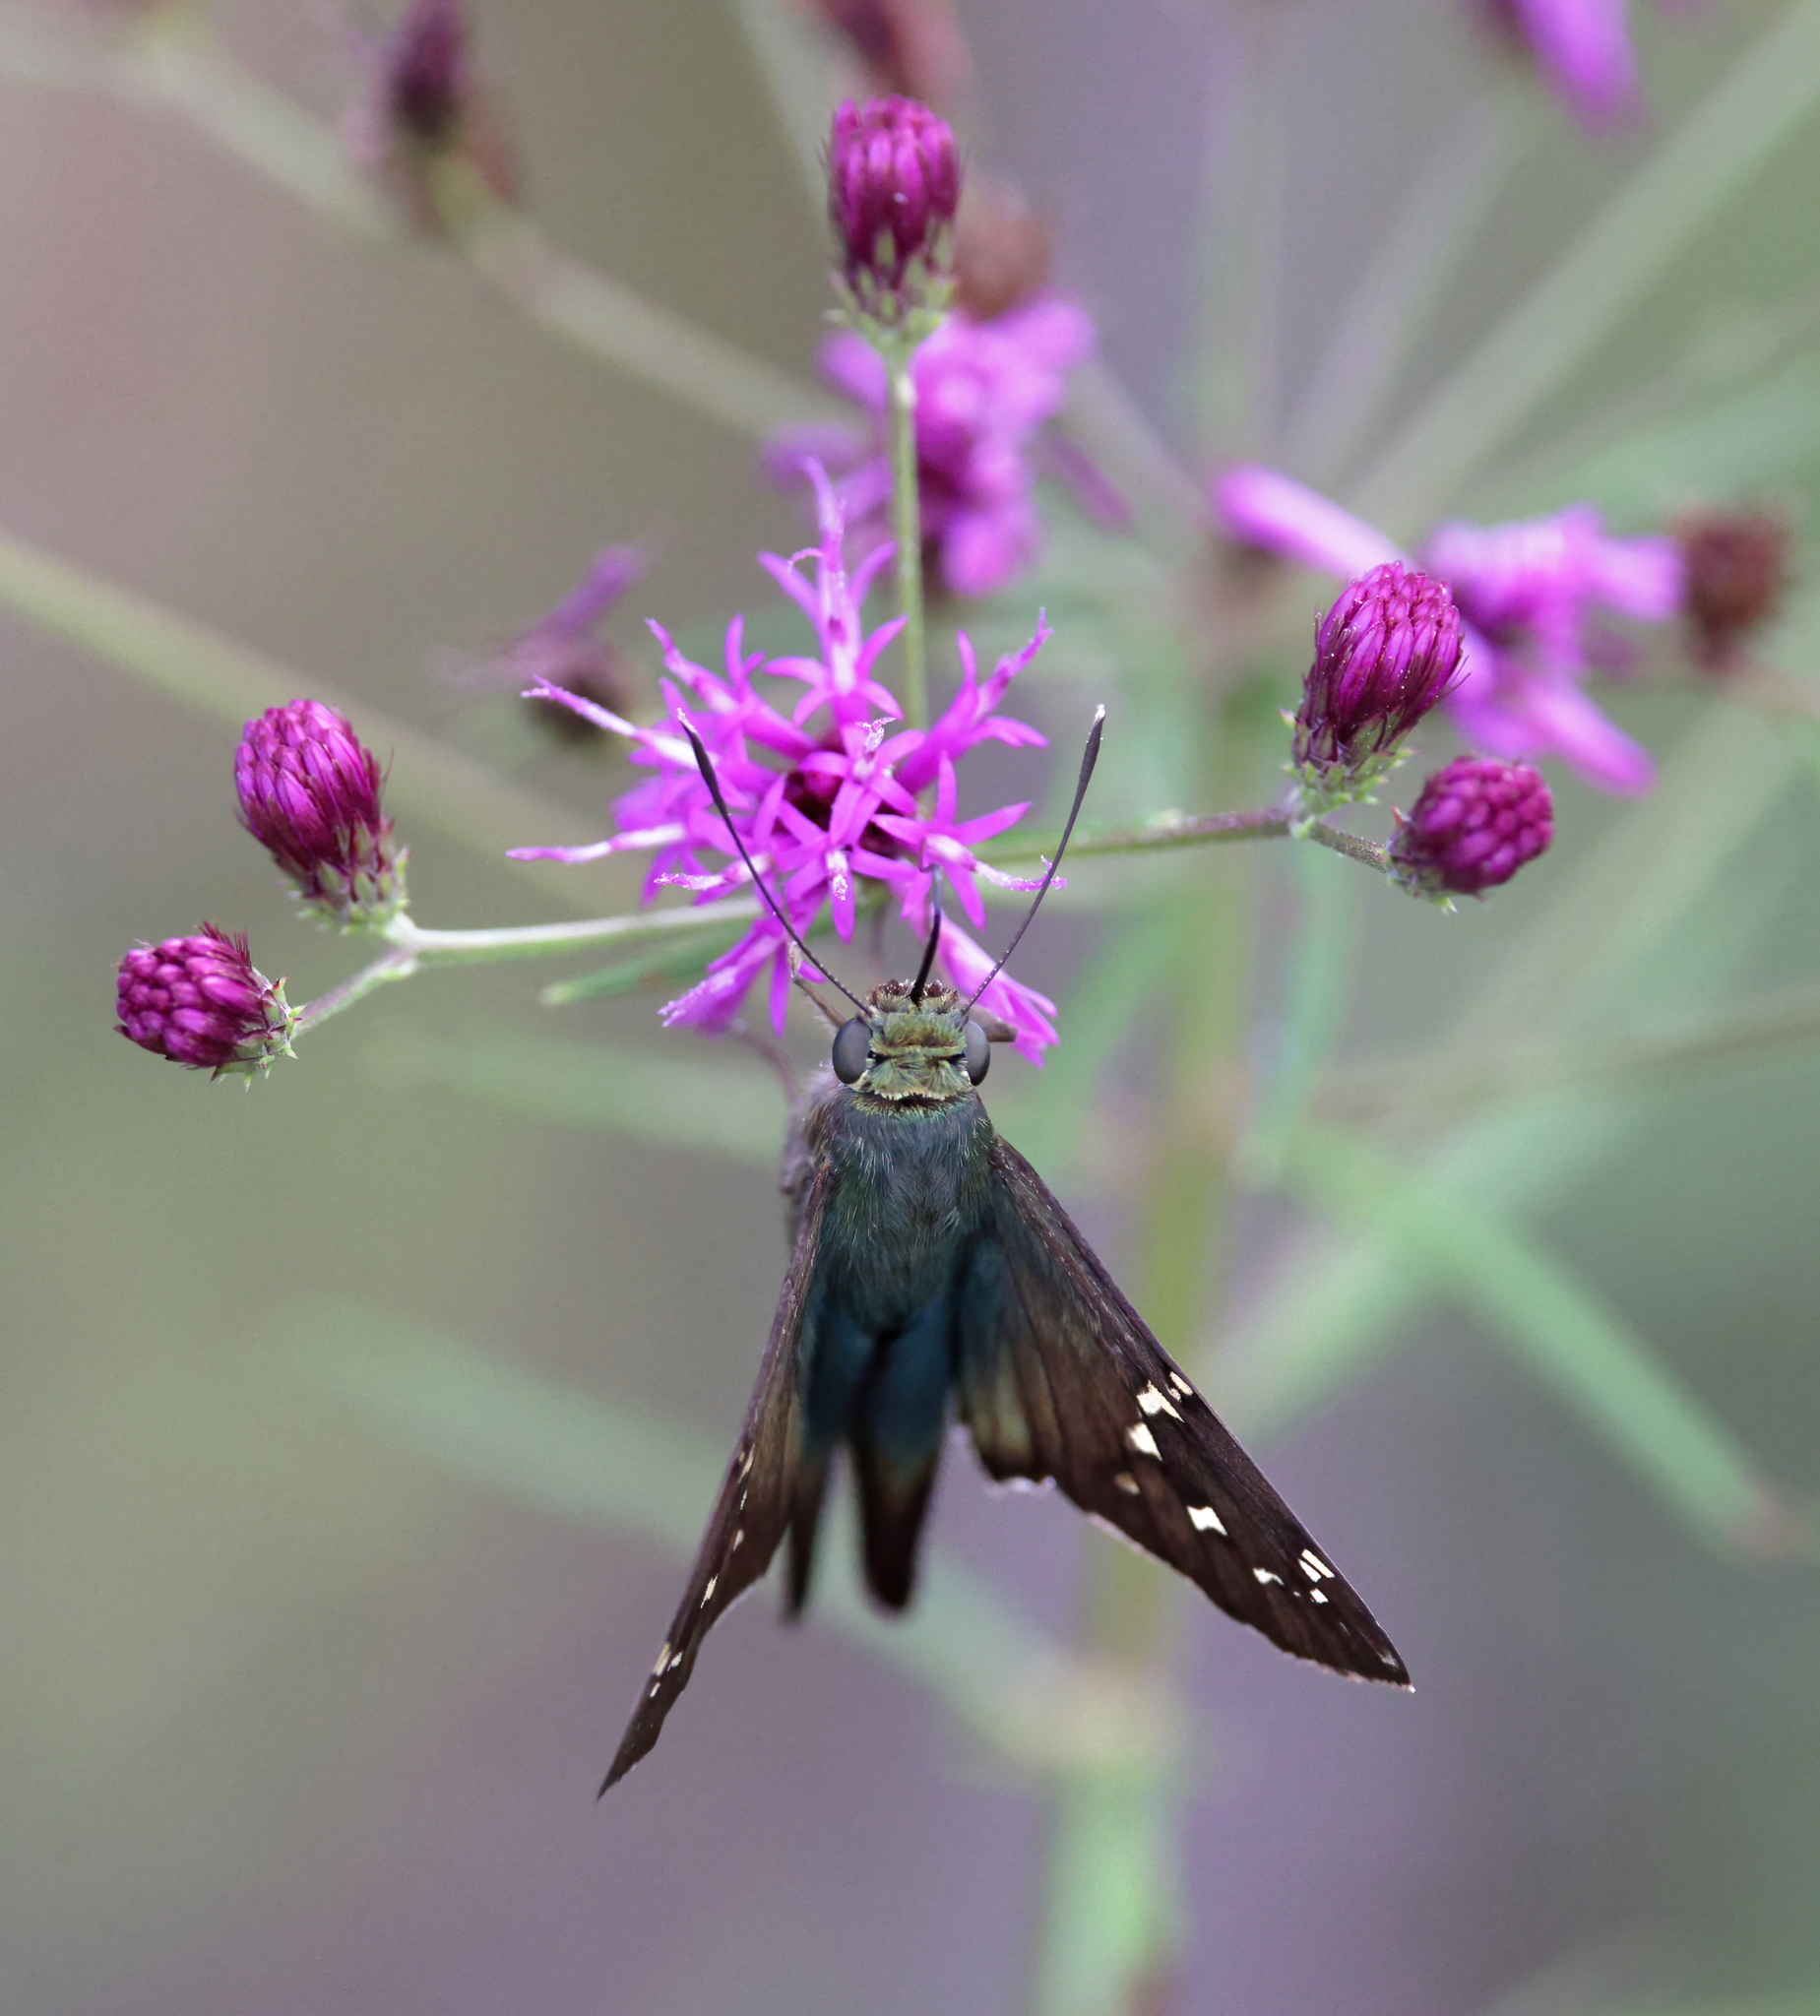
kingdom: Animalia
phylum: Arthropoda
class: Insecta
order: Lepidoptera
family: Hesperiidae
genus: Urbanus
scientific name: Urbanus proteus
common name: Long-tailed skipper
